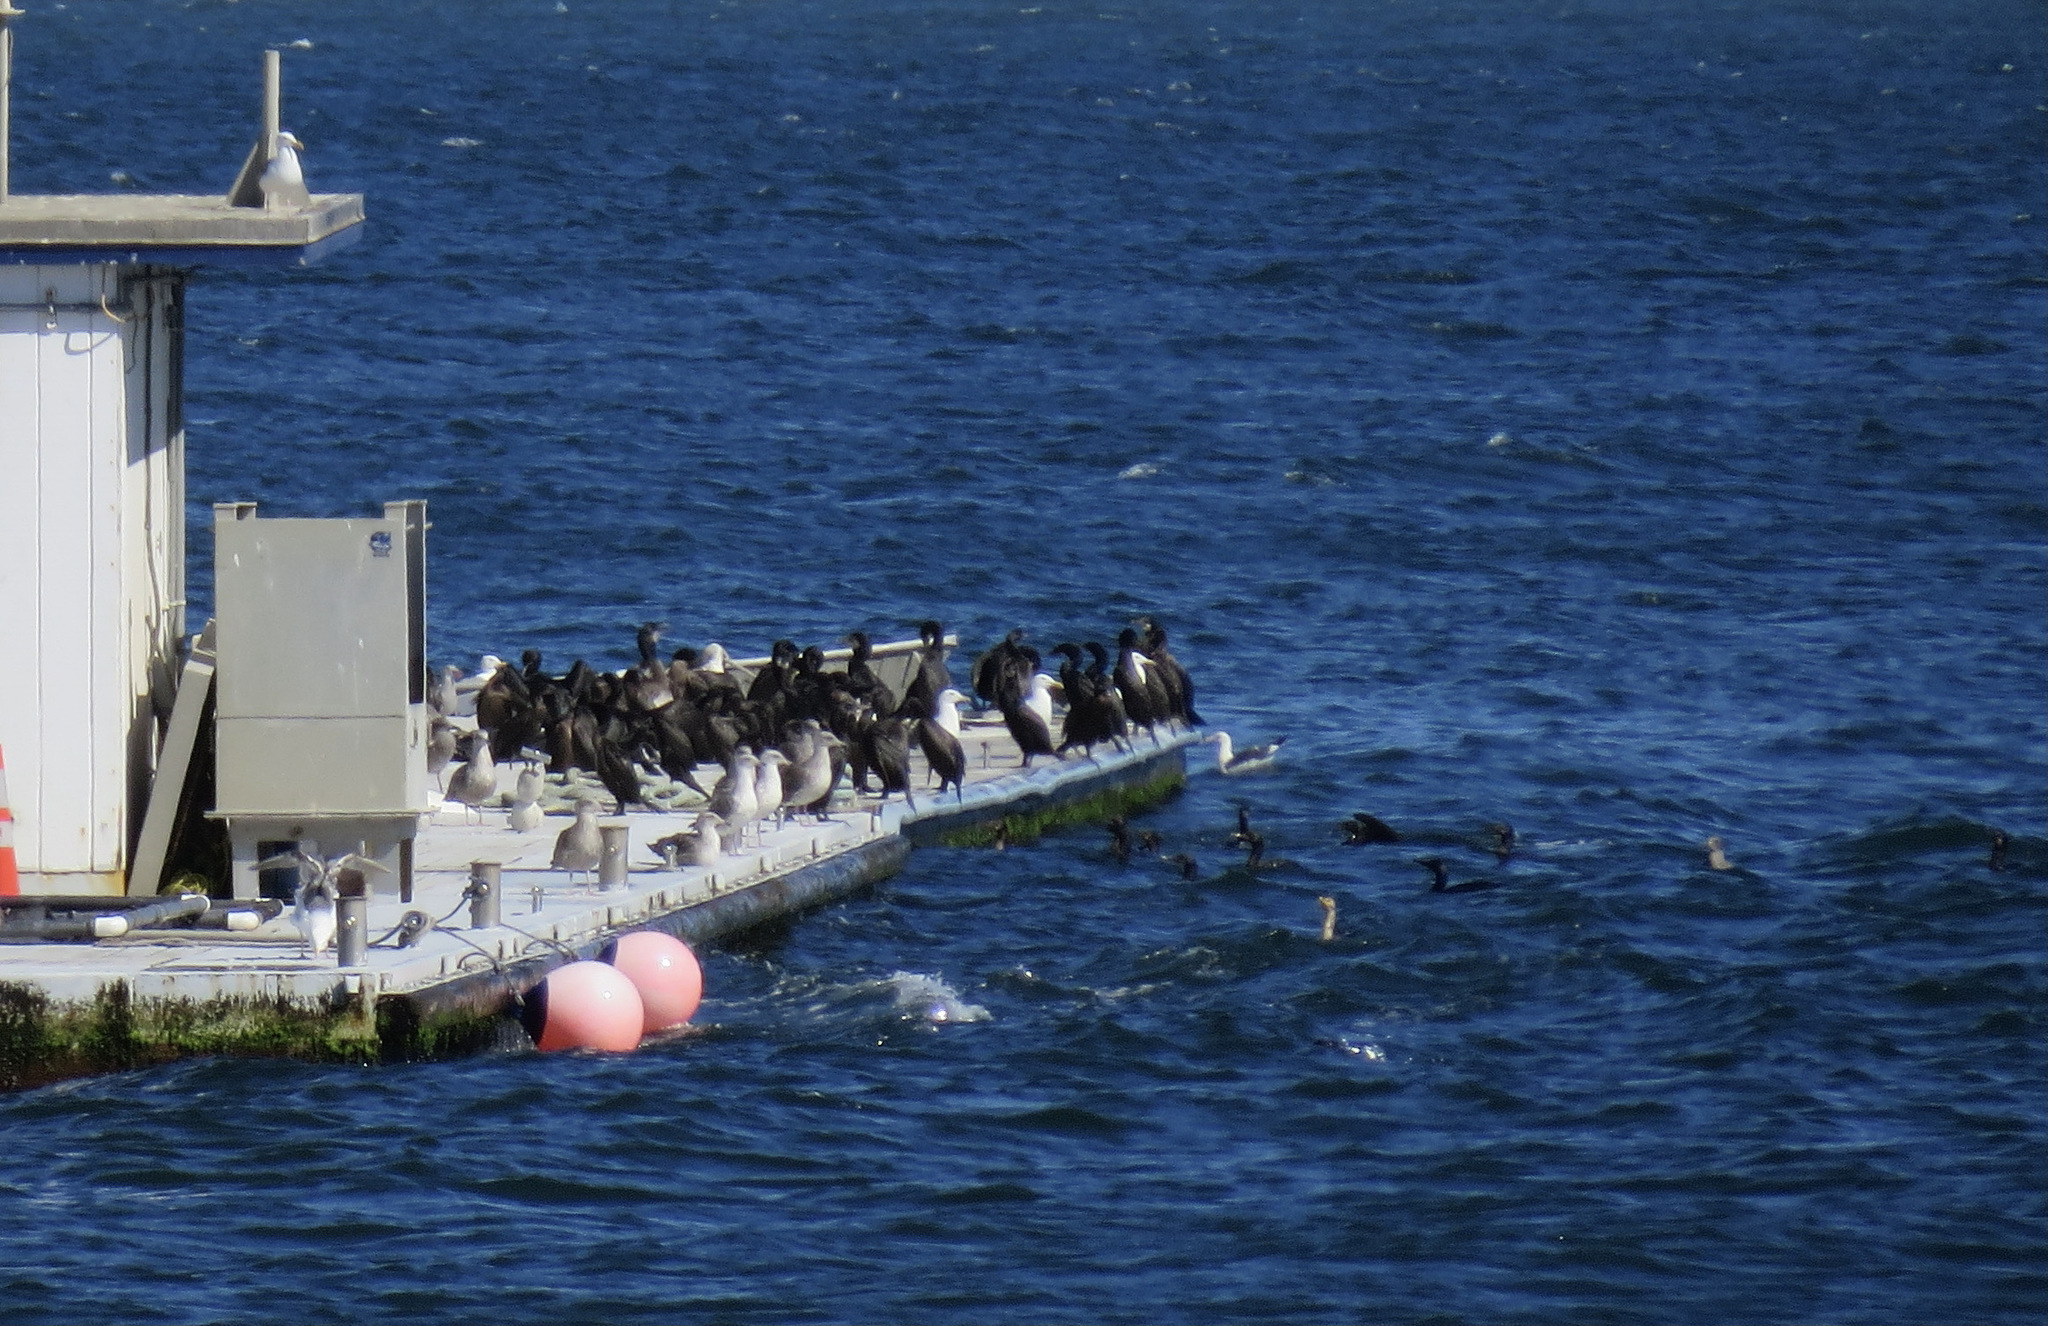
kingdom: Animalia
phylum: Chordata
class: Aves
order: Suliformes
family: Phalacrocoracidae
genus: Urile
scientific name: Urile penicillatus
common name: Brandt's cormorant
